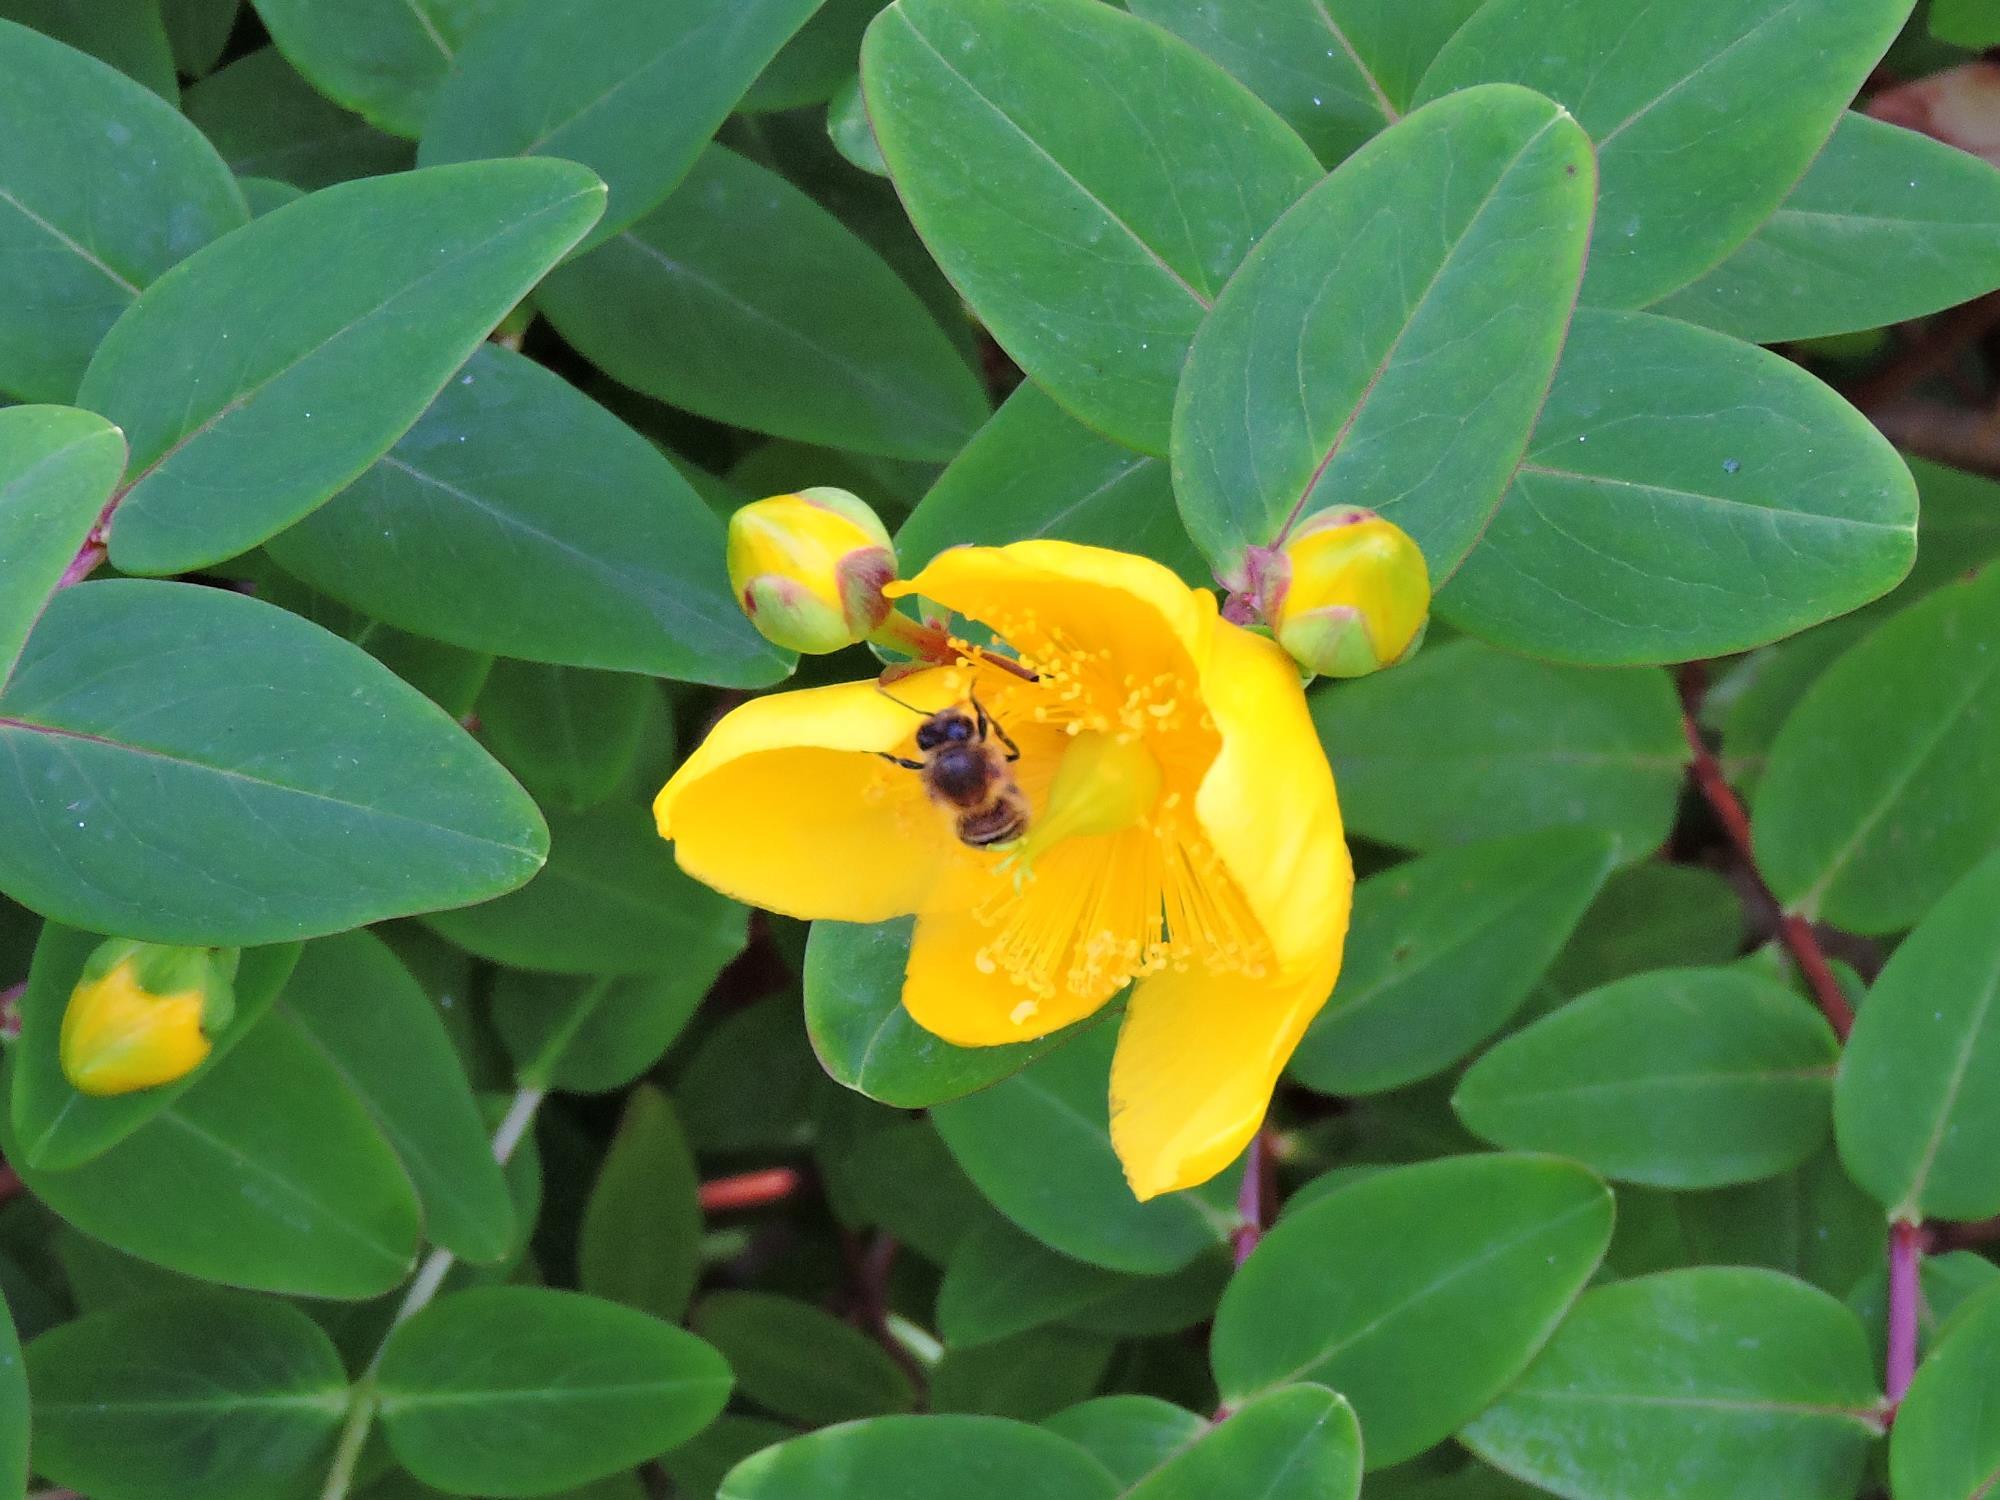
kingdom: Animalia
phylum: Arthropoda
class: Insecta
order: Hymenoptera
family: Apidae
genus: Apis
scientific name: Apis mellifera
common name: Honey bee
